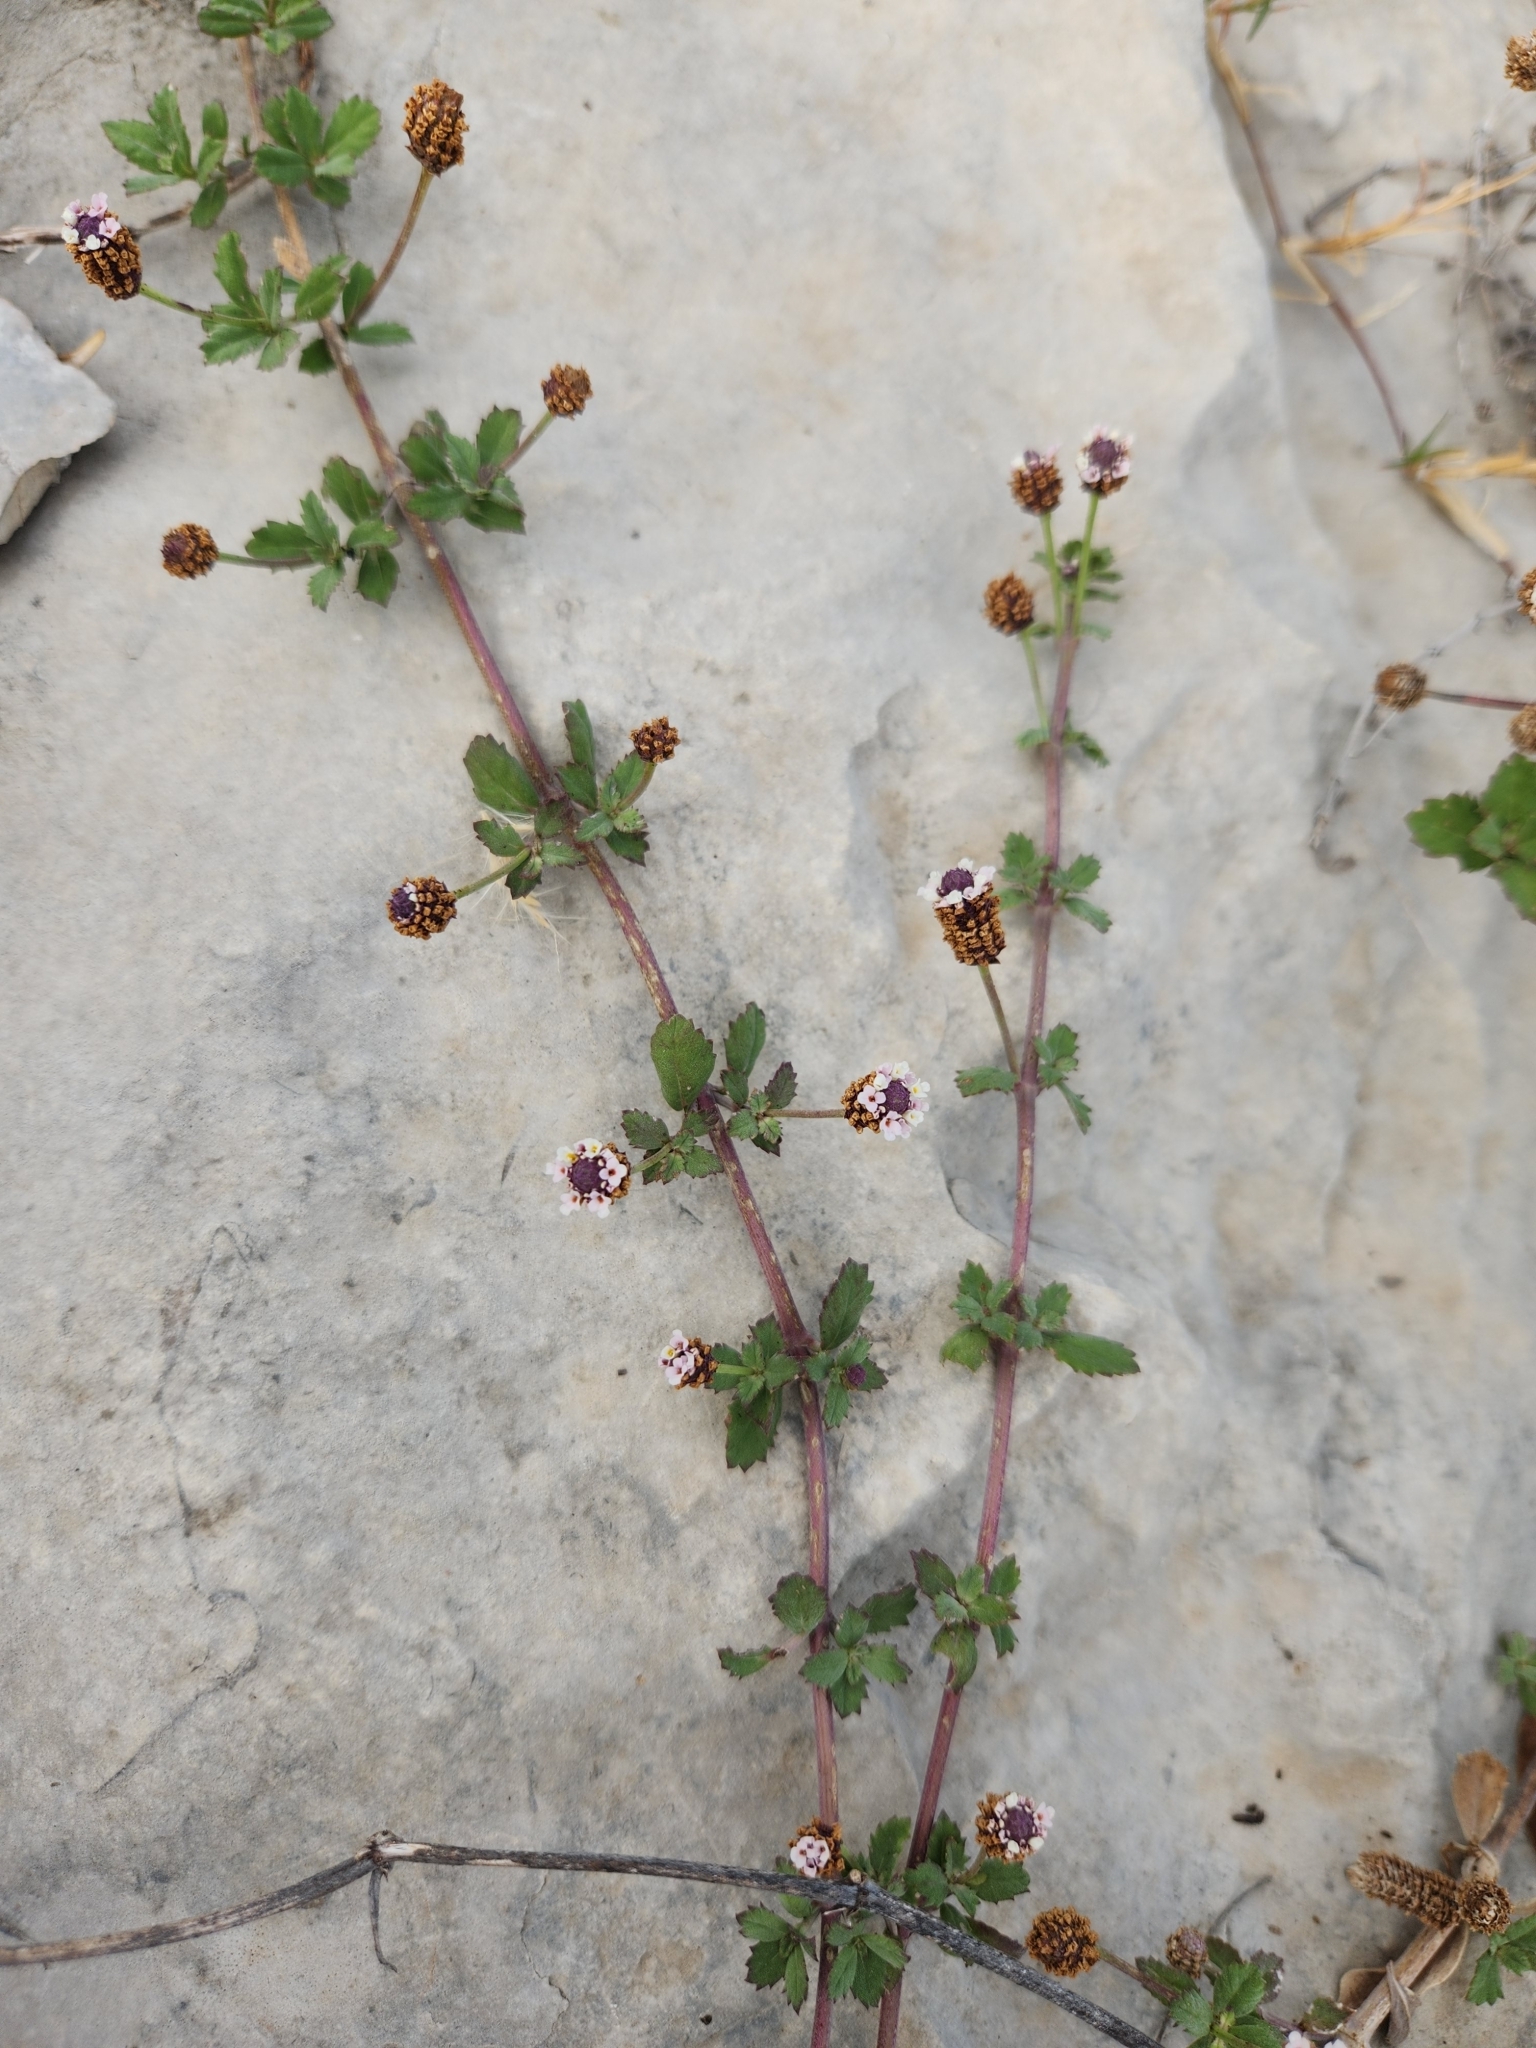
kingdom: Plantae
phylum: Tracheophyta
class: Magnoliopsida
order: Lamiales
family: Verbenaceae
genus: Phyla
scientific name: Phyla nodiflora
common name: Frogfruit
